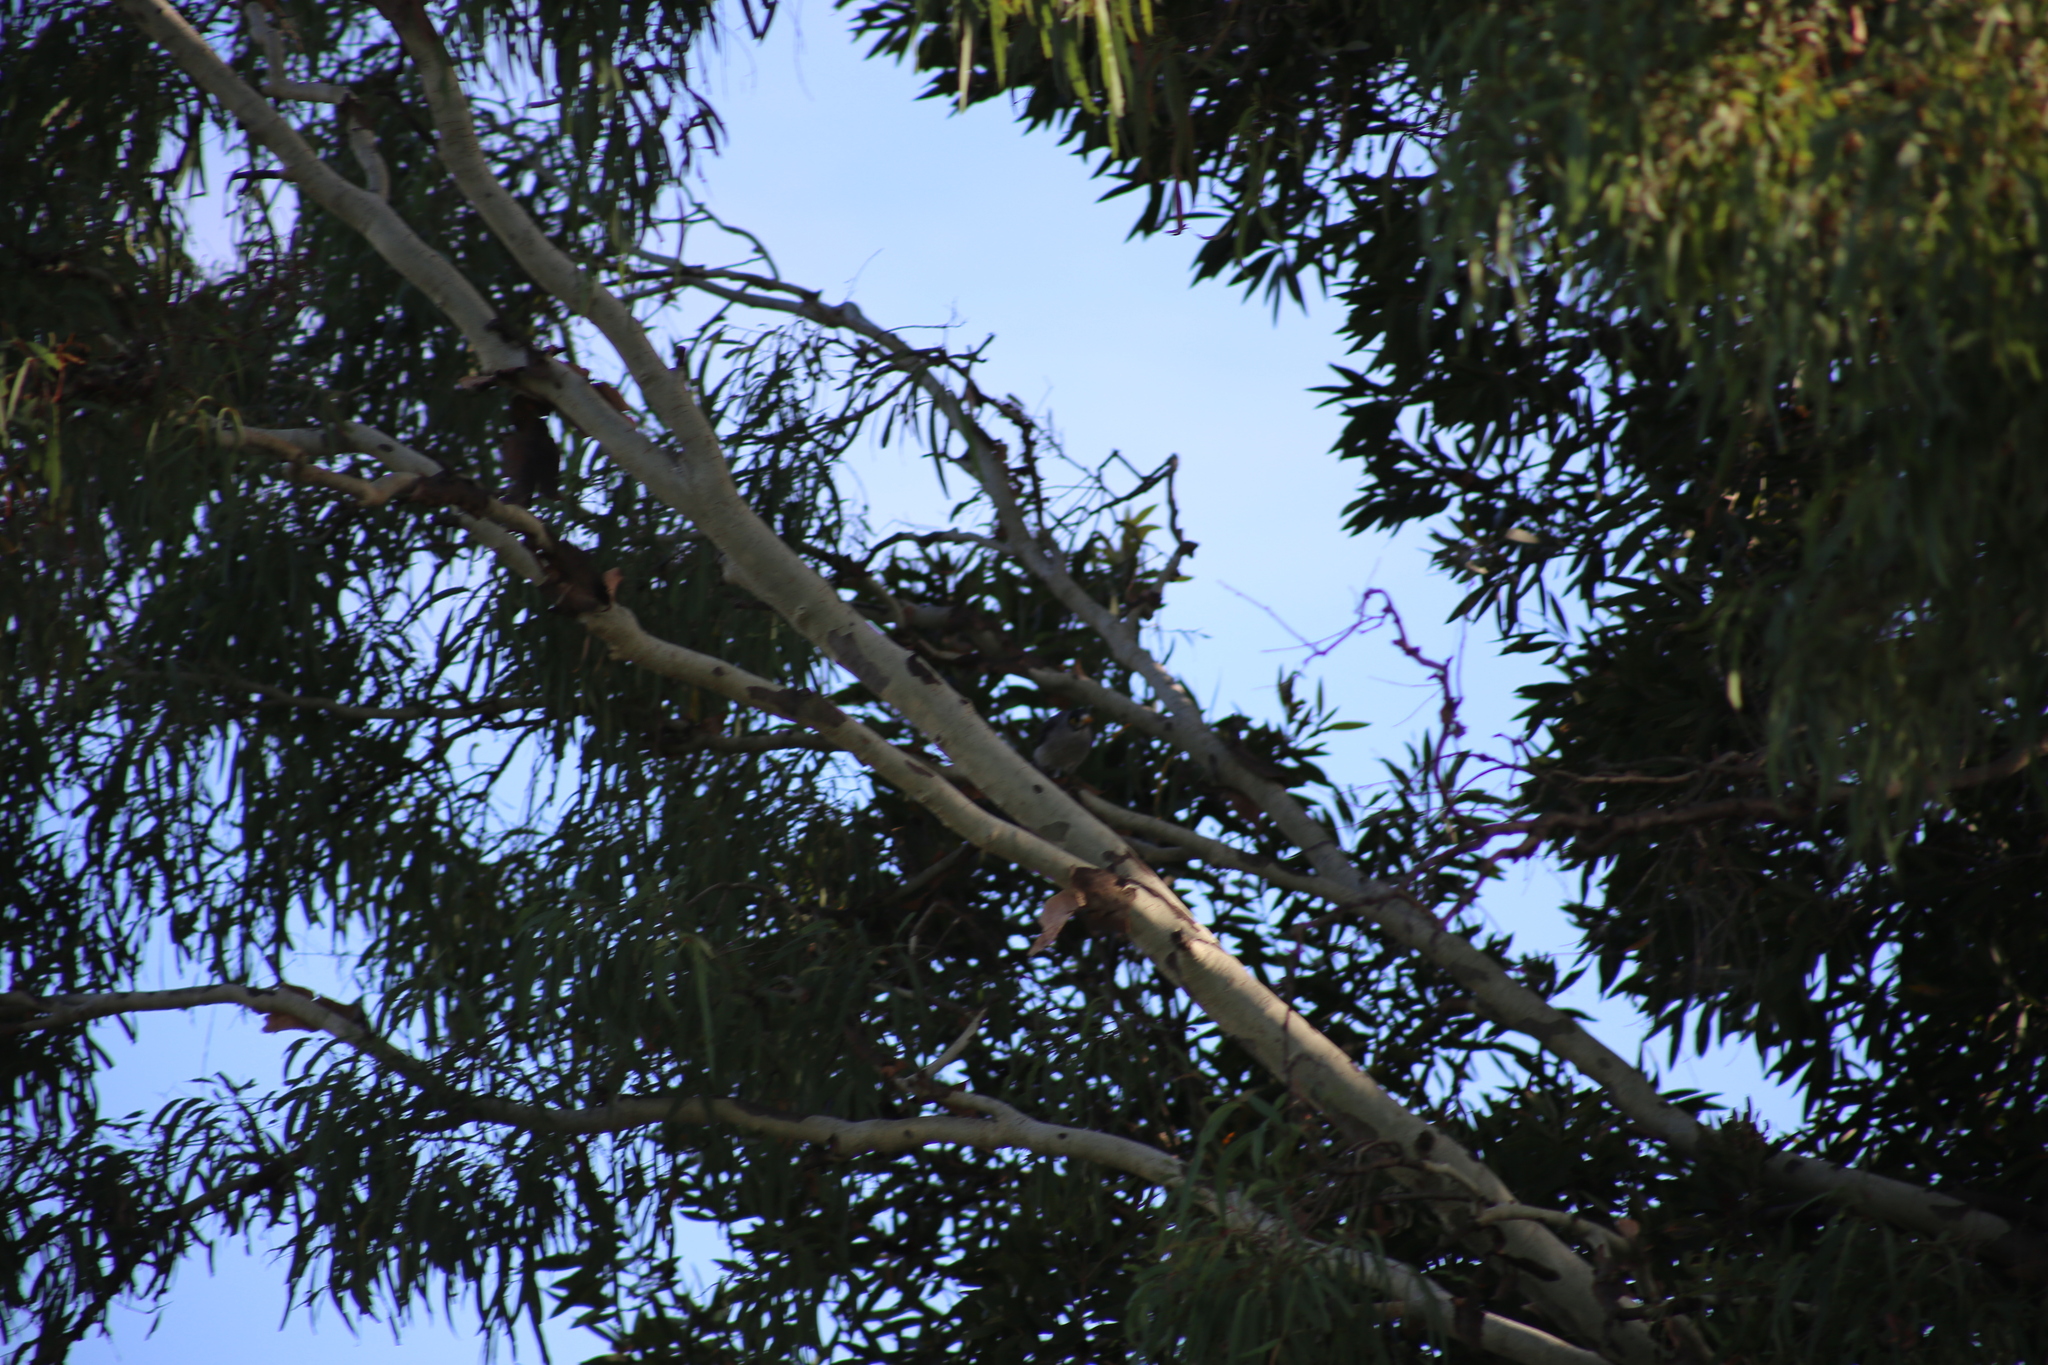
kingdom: Animalia
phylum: Chordata
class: Aves
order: Passeriformes
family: Meliphagidae
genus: Manorina
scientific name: Manorina melanocephala
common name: Noisy miner
